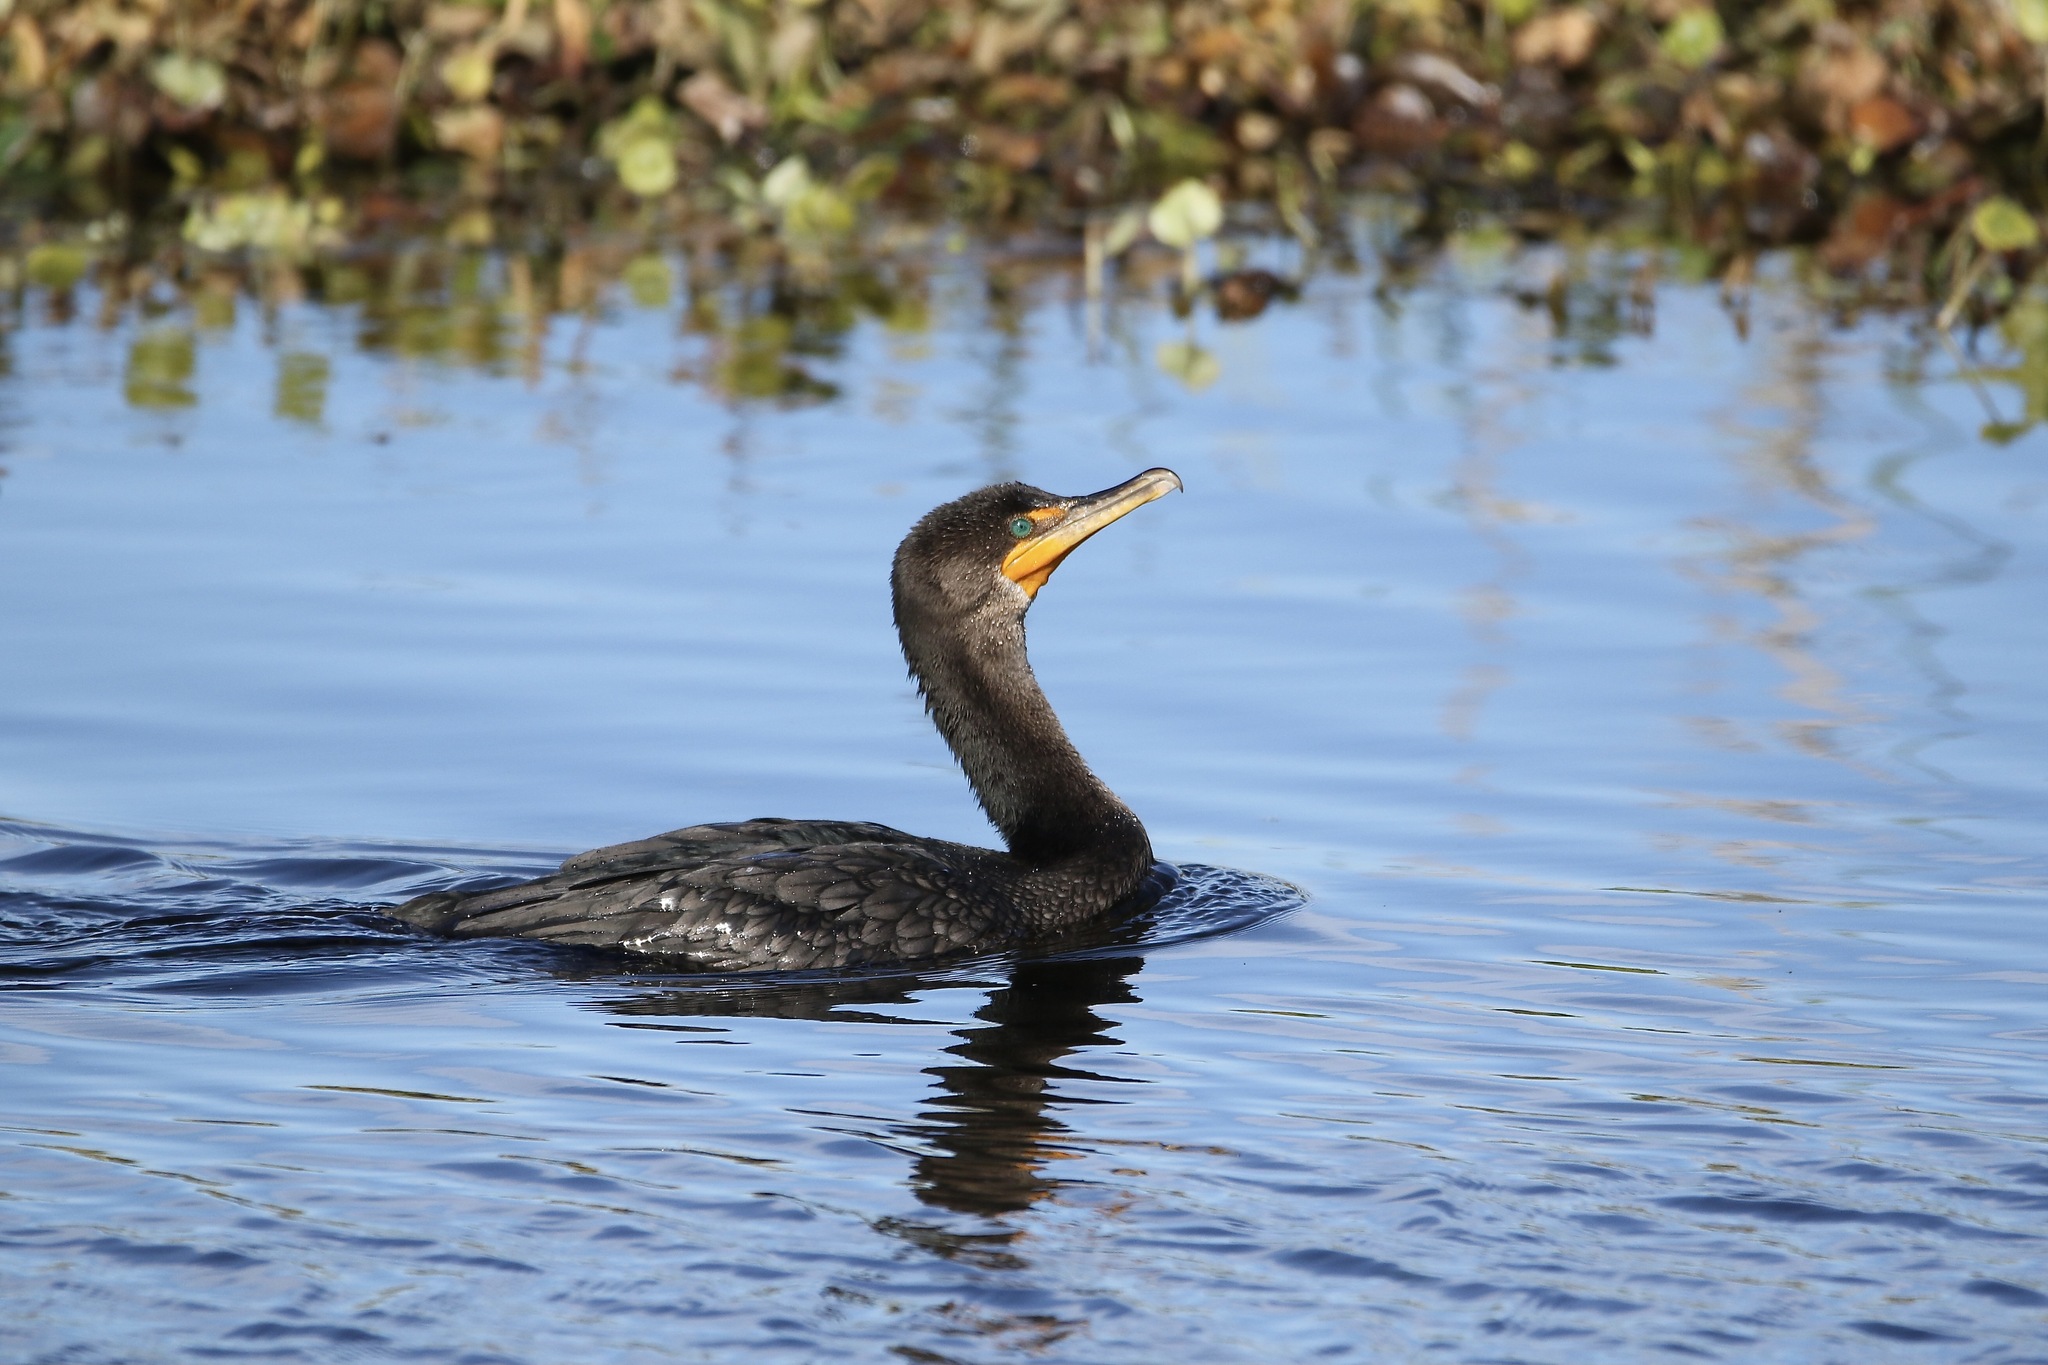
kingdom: Animalia
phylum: Chordata
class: Aves
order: Suliformes
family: Phalacrocoracidae
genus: Phalacrocorax
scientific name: Phalacrocorax auritus
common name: Double-crested cormorant
